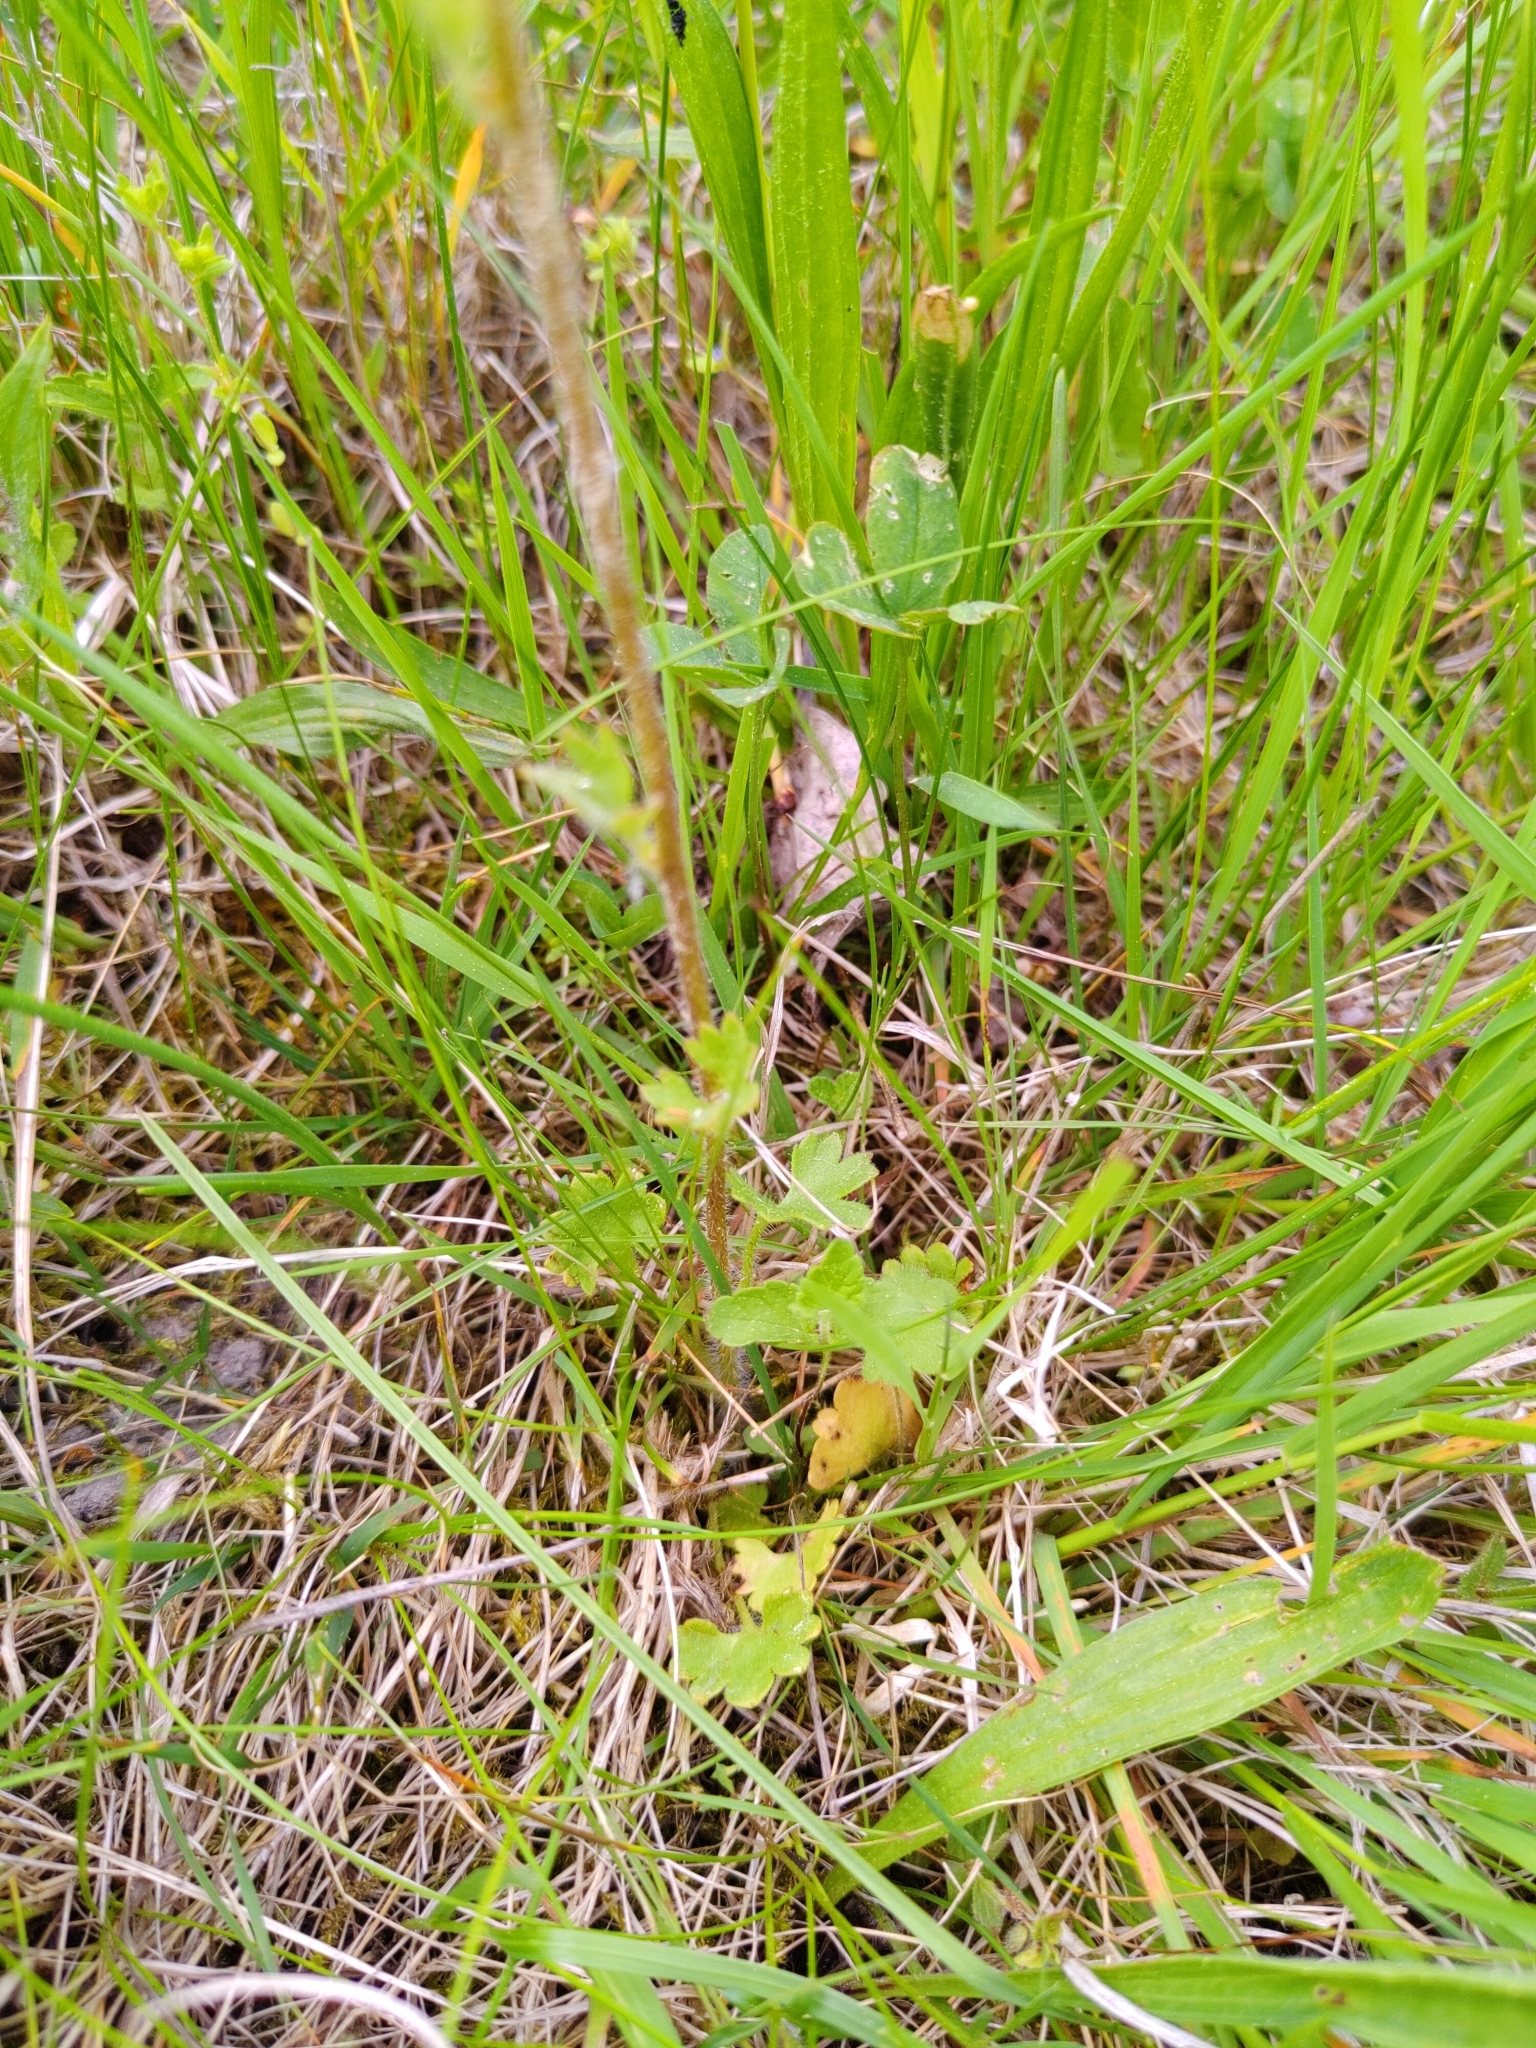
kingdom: Plantae
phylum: Tracheophyta
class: Magnoliopsida
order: Saxifragales
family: Saxifragaceae
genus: Saxifraga
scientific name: Saxifraga granulata
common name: Meadow saxifrage
